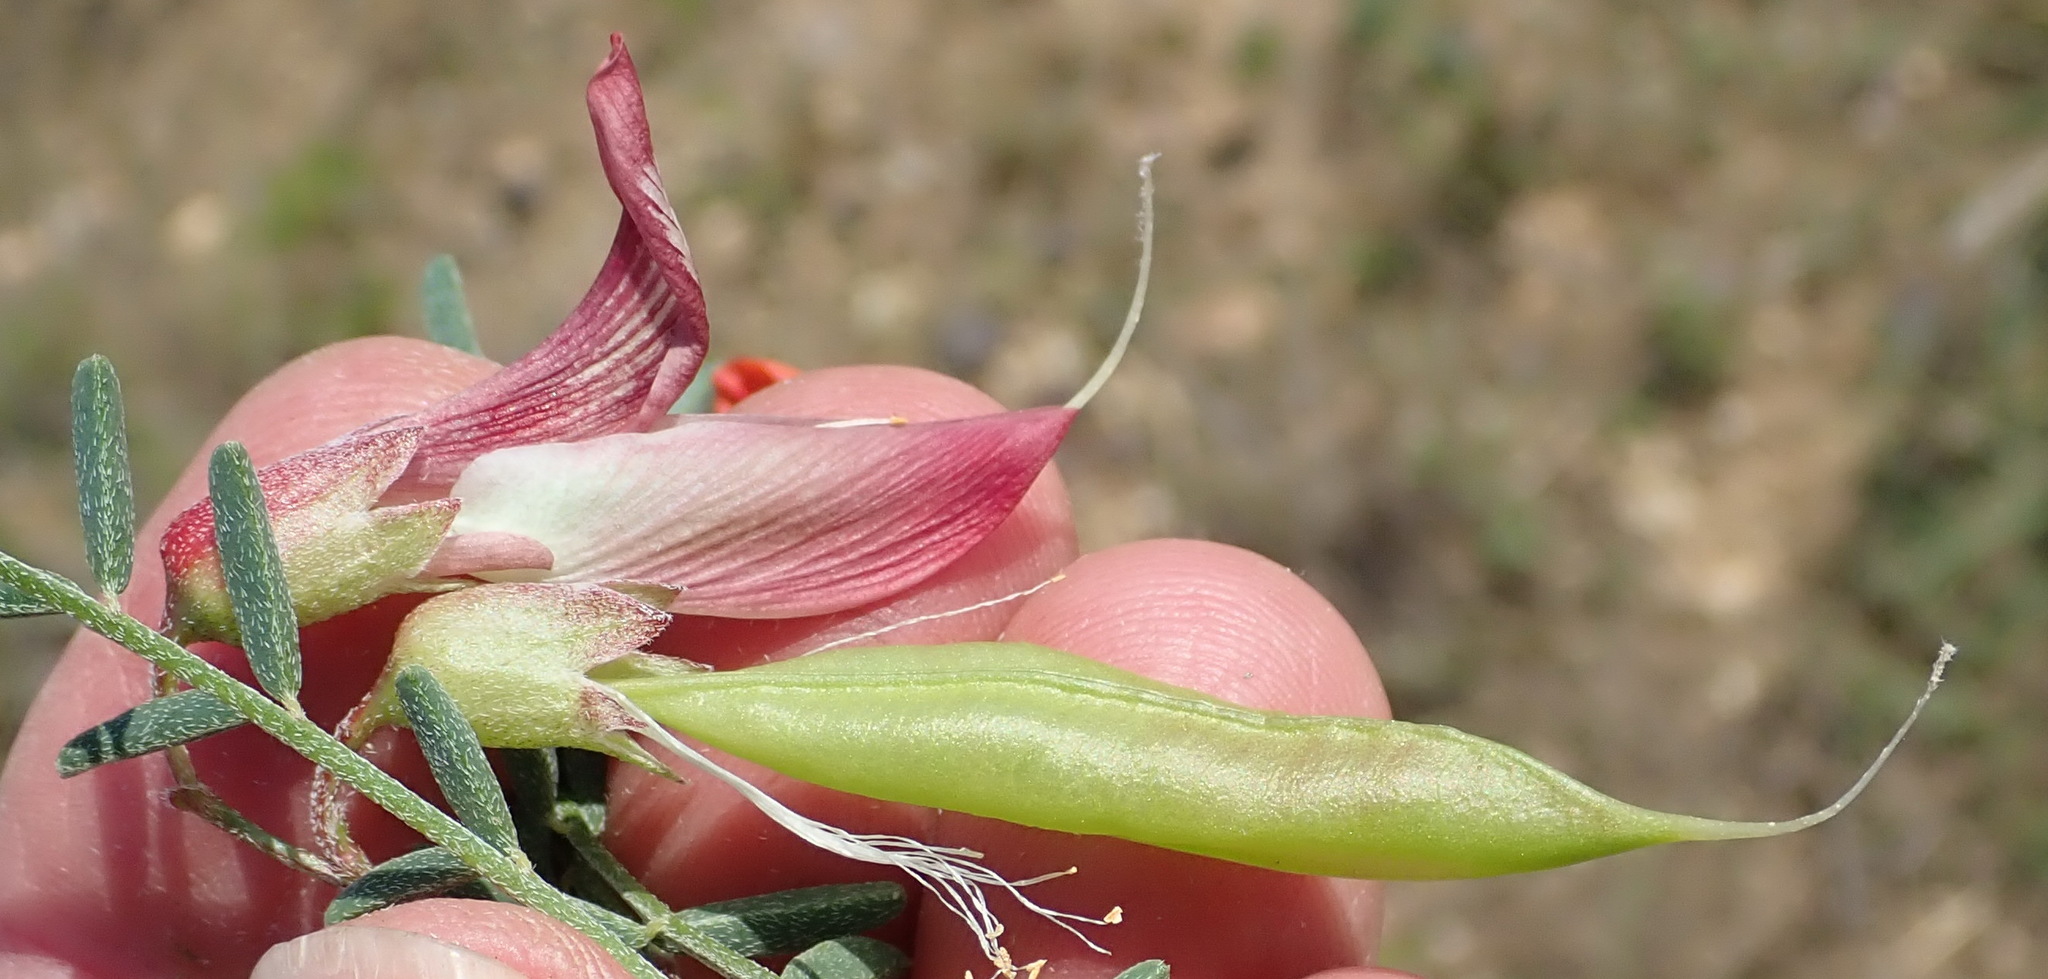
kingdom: Plantae
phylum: Tracheophyta
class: Magnoliopsida
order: Fabales
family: Fabaceae
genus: Lessertia
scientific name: Lessertia frutescens
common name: Balloon-pea
